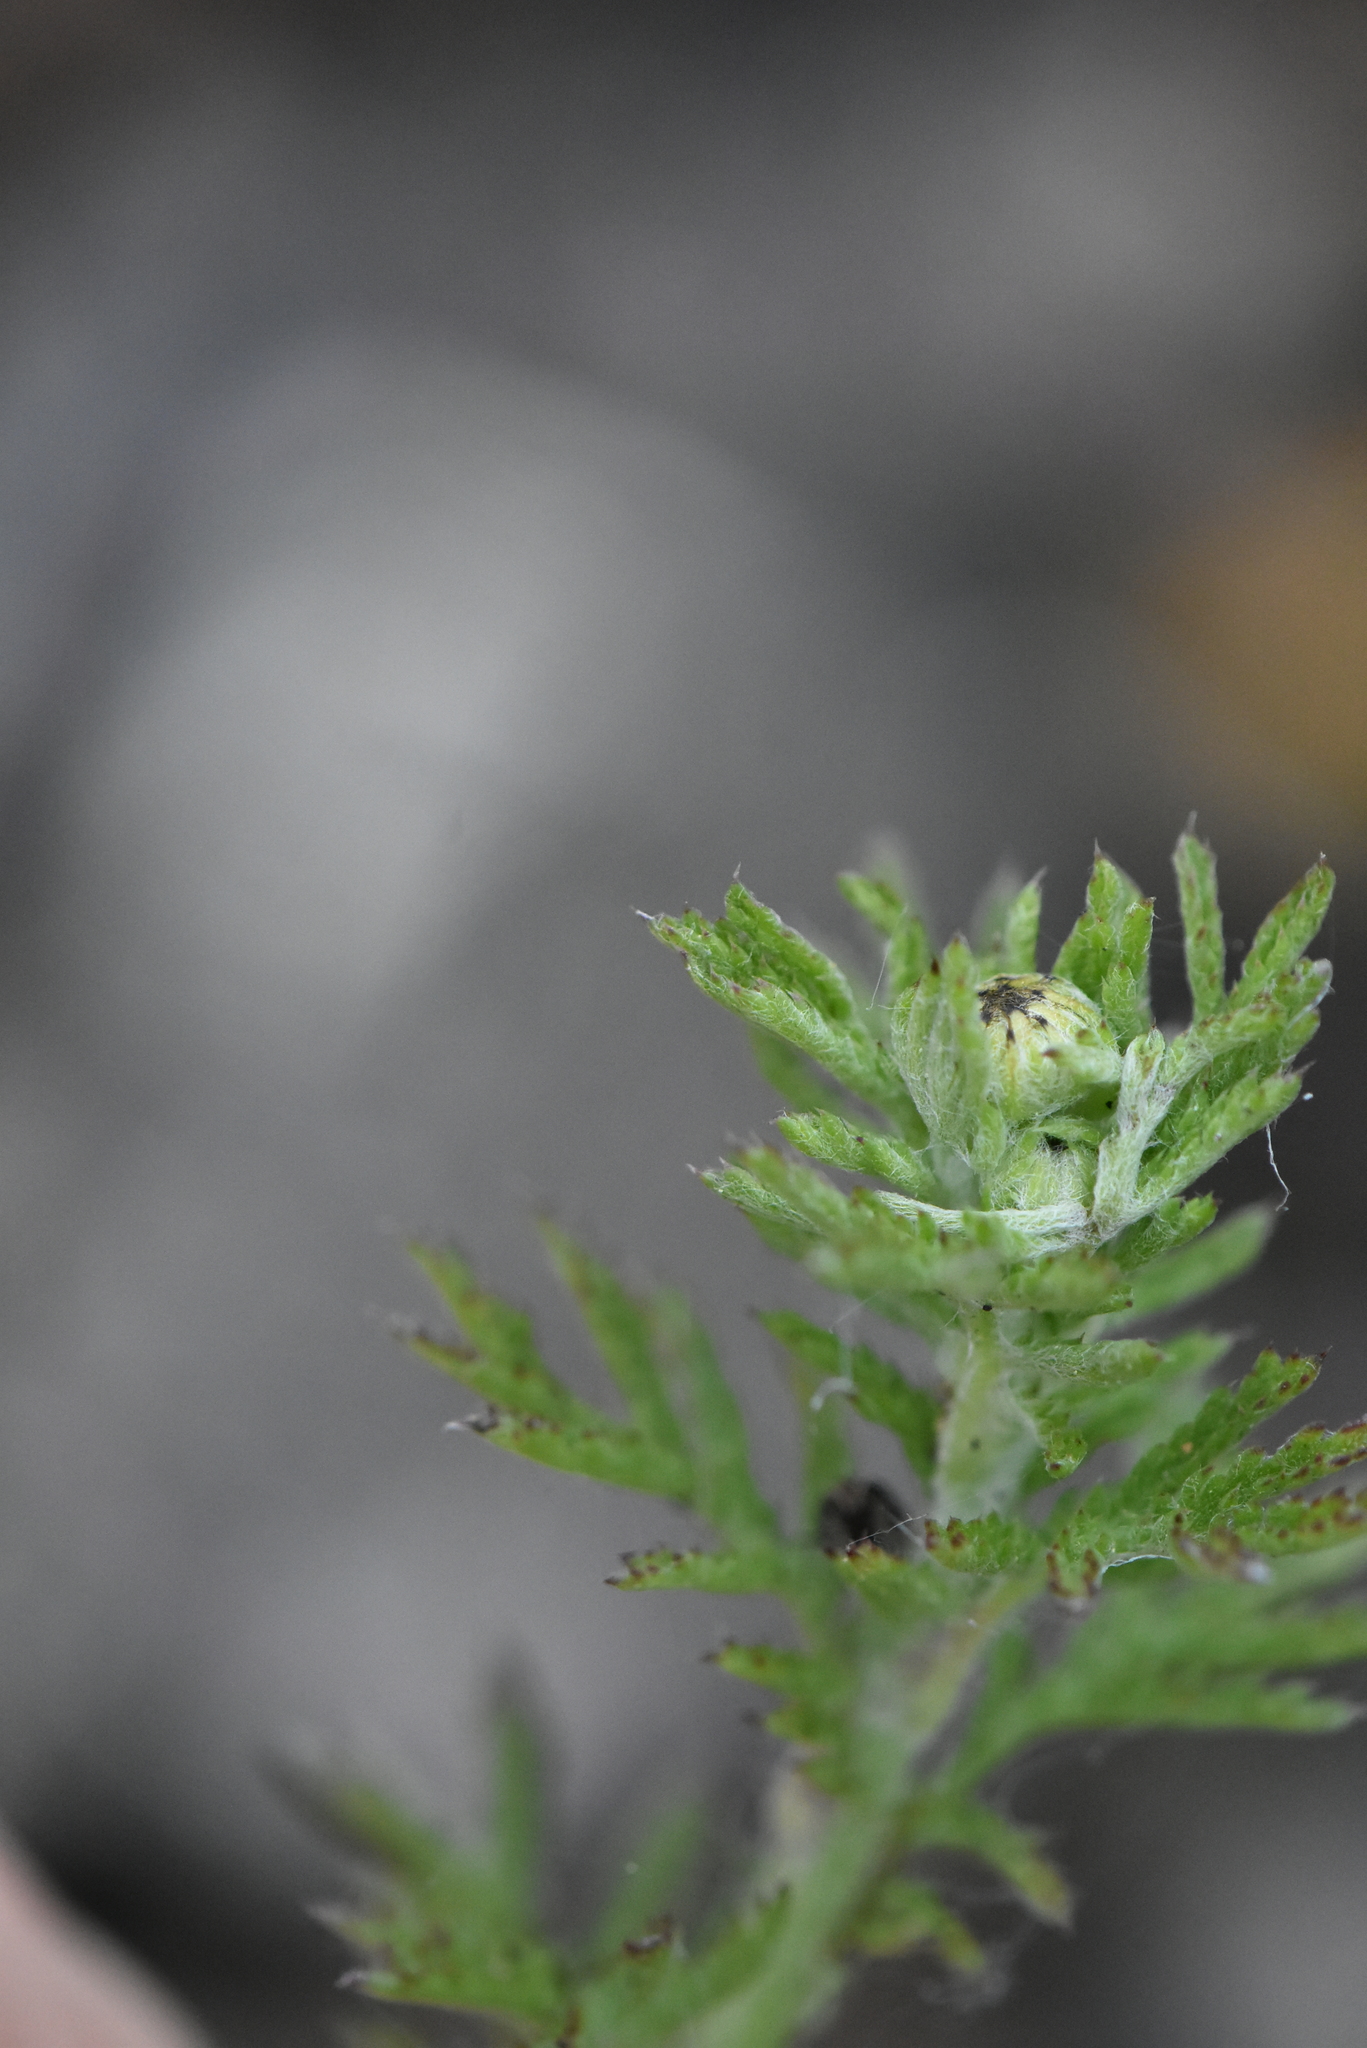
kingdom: Plantae
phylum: Tracheophyta
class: Magnoliopsida
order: Asterales
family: Asteraceae
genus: Cota
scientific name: Cota tinctoria
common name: Golden chamomile
